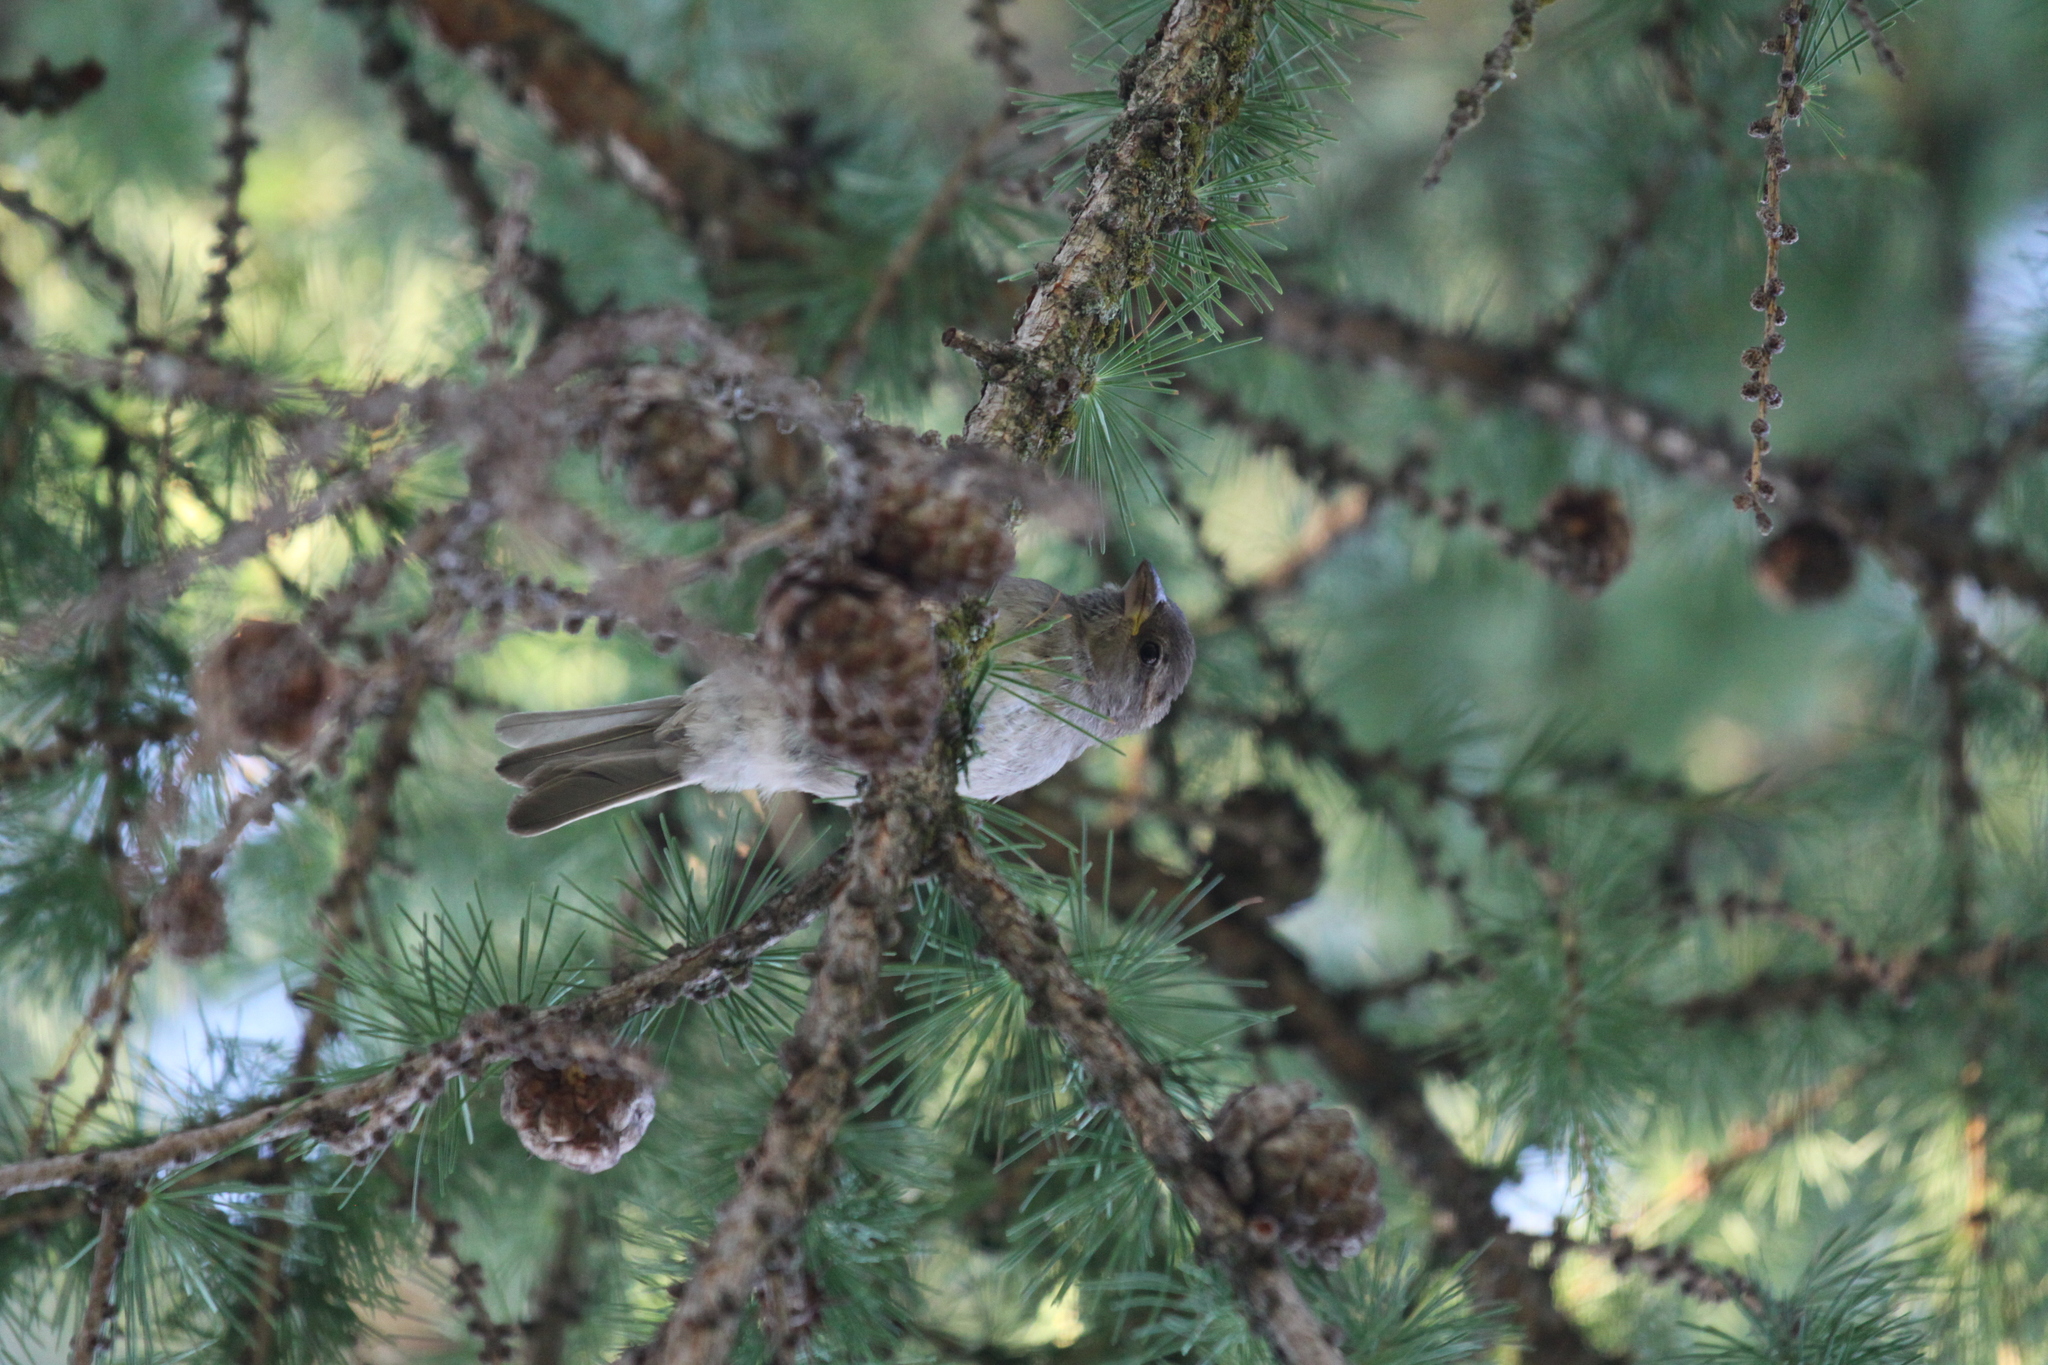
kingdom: Animalia
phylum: Chordata
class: Aves
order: Passeriformes
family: Passeridae
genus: Passer
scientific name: Passer domesticus
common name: House sparrow
